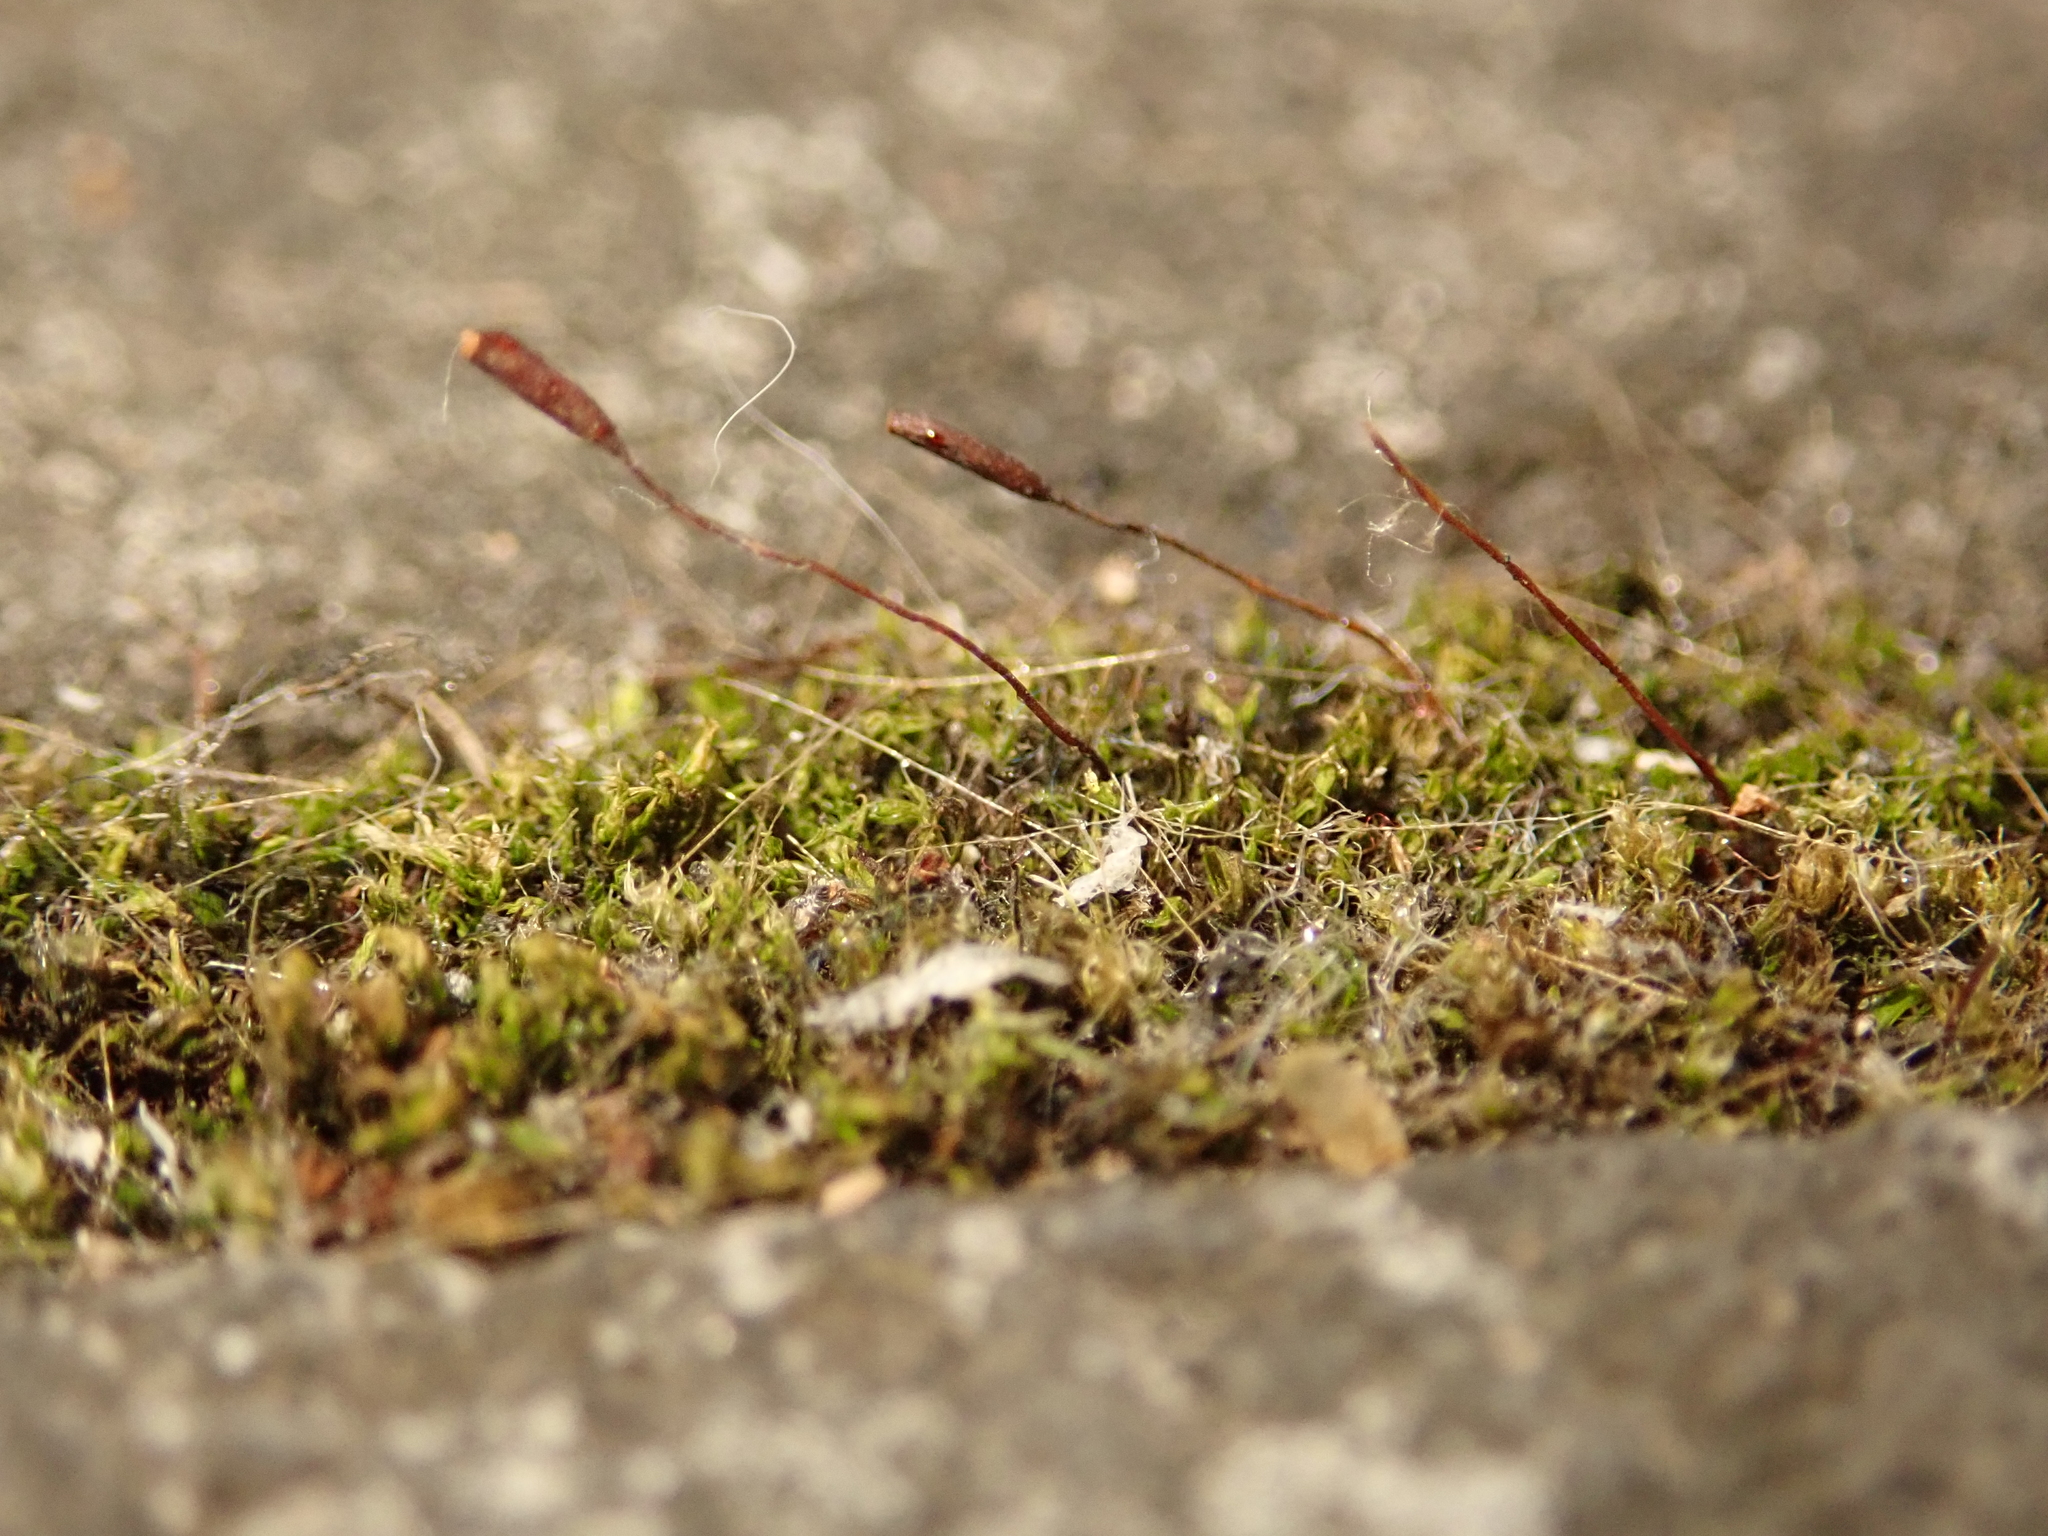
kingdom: Plantae
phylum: Bryophyta
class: Bryopsida
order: Pottiales
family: Pottiaceae
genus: Tortula
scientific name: Tortula muralis
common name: Wall screw-moss
